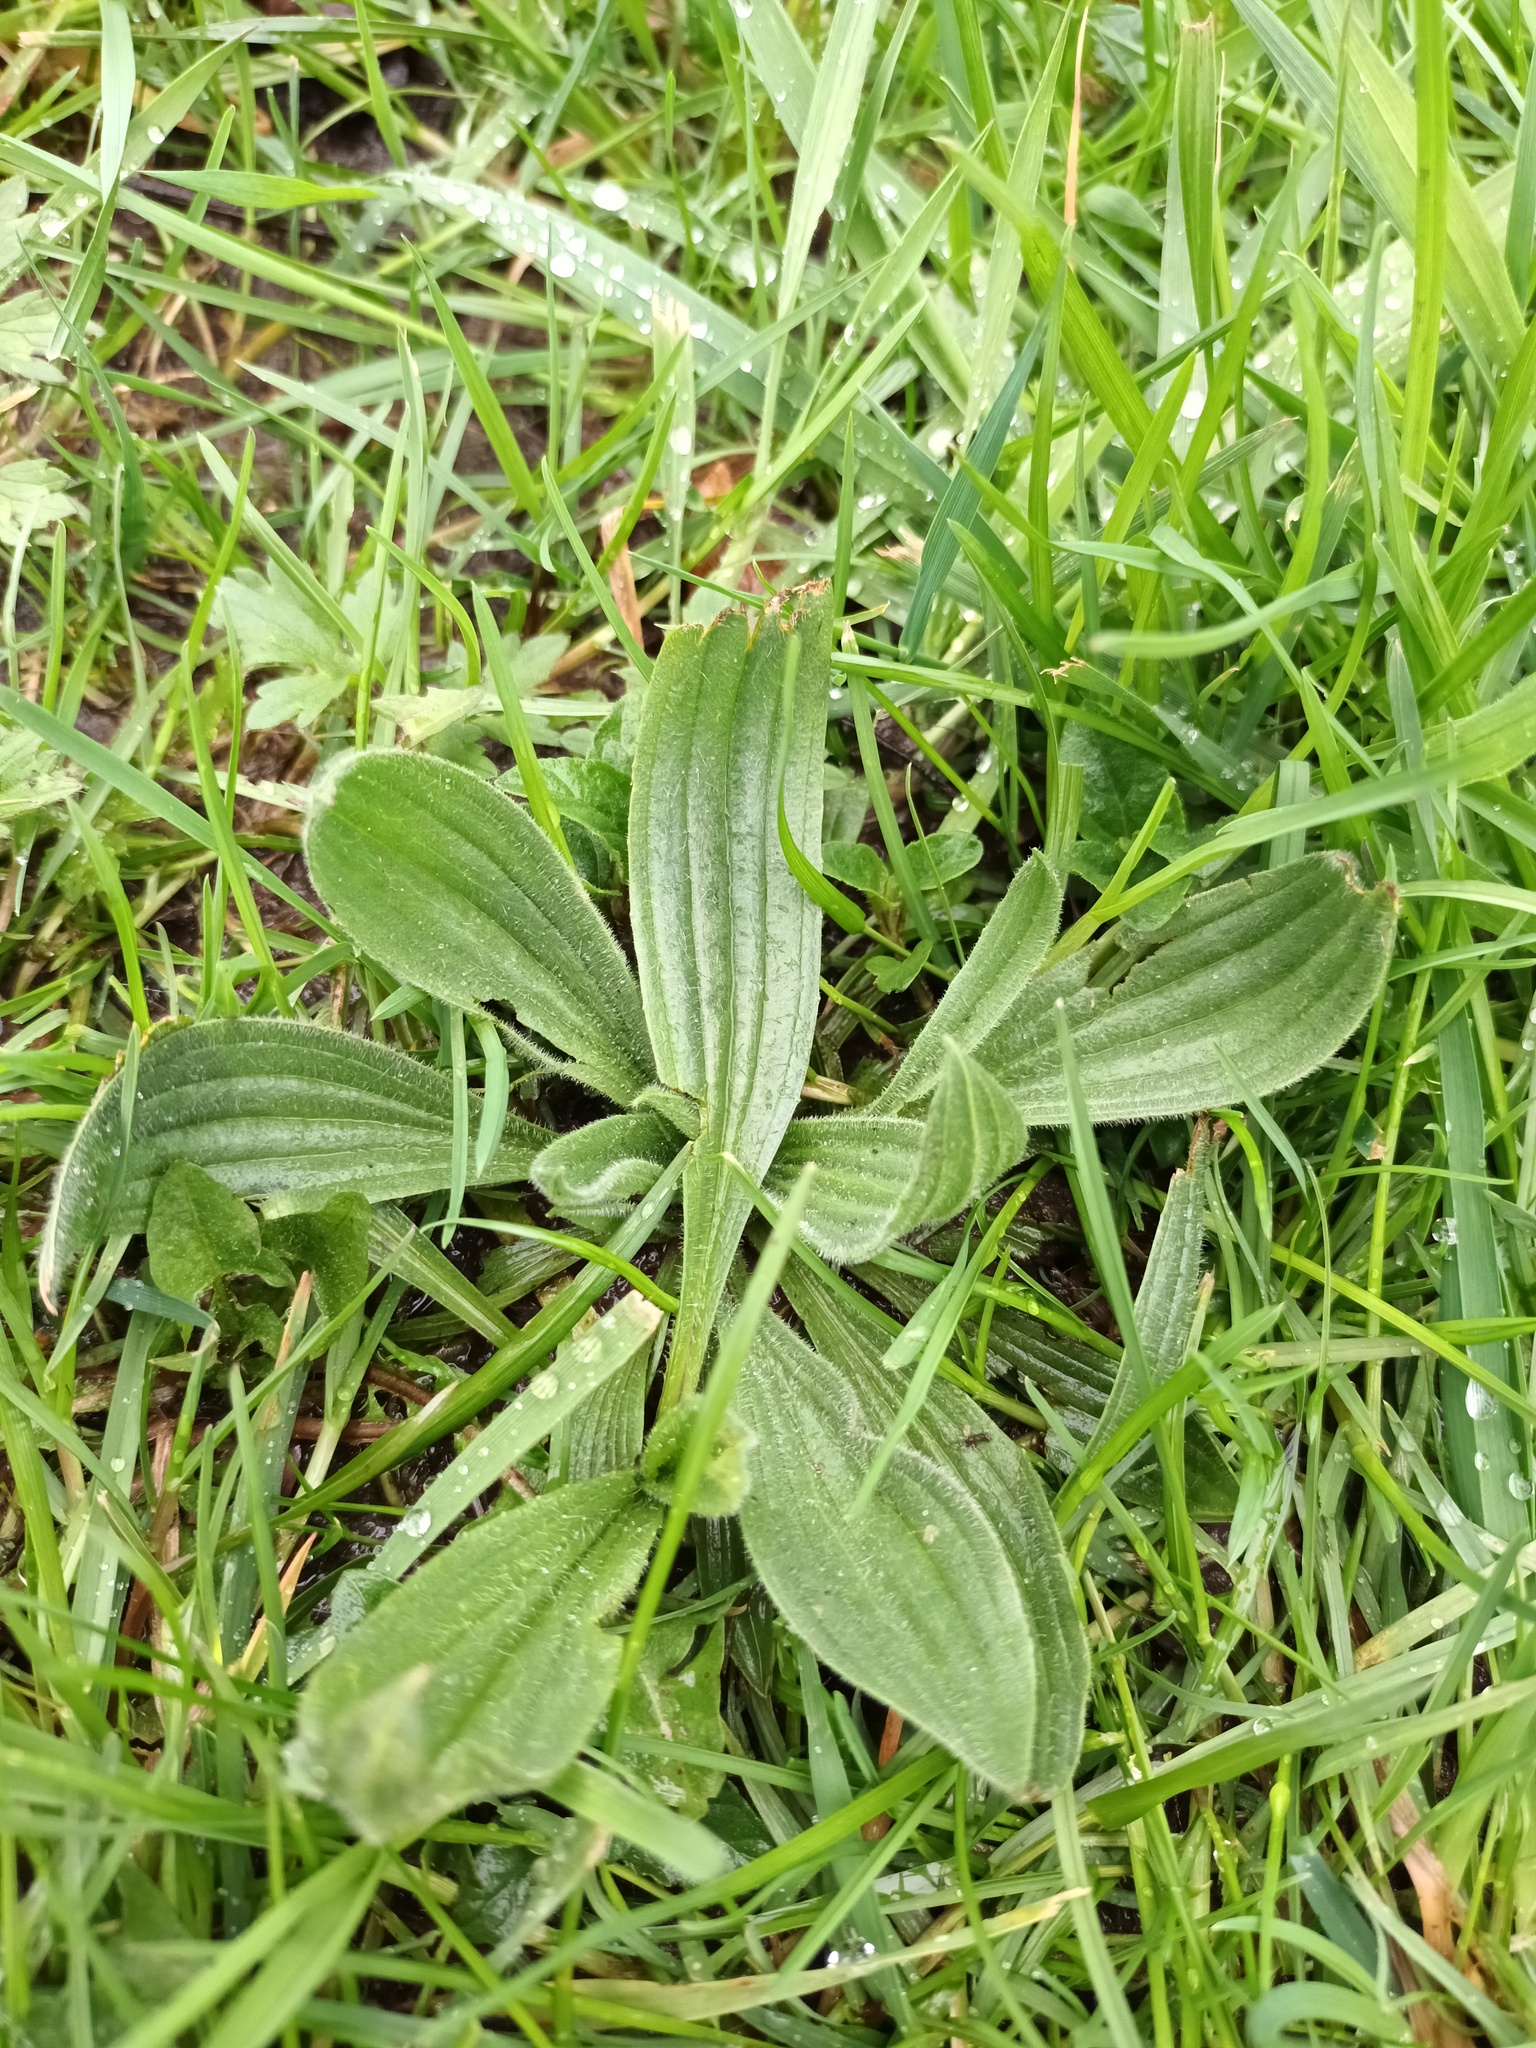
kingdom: Plantae
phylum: Tracheophyta
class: Magnoliopsida
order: Lamiales
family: Plantaginaceae
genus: Plantago
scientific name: Plantago lanceolata
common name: Ribwort plantain
